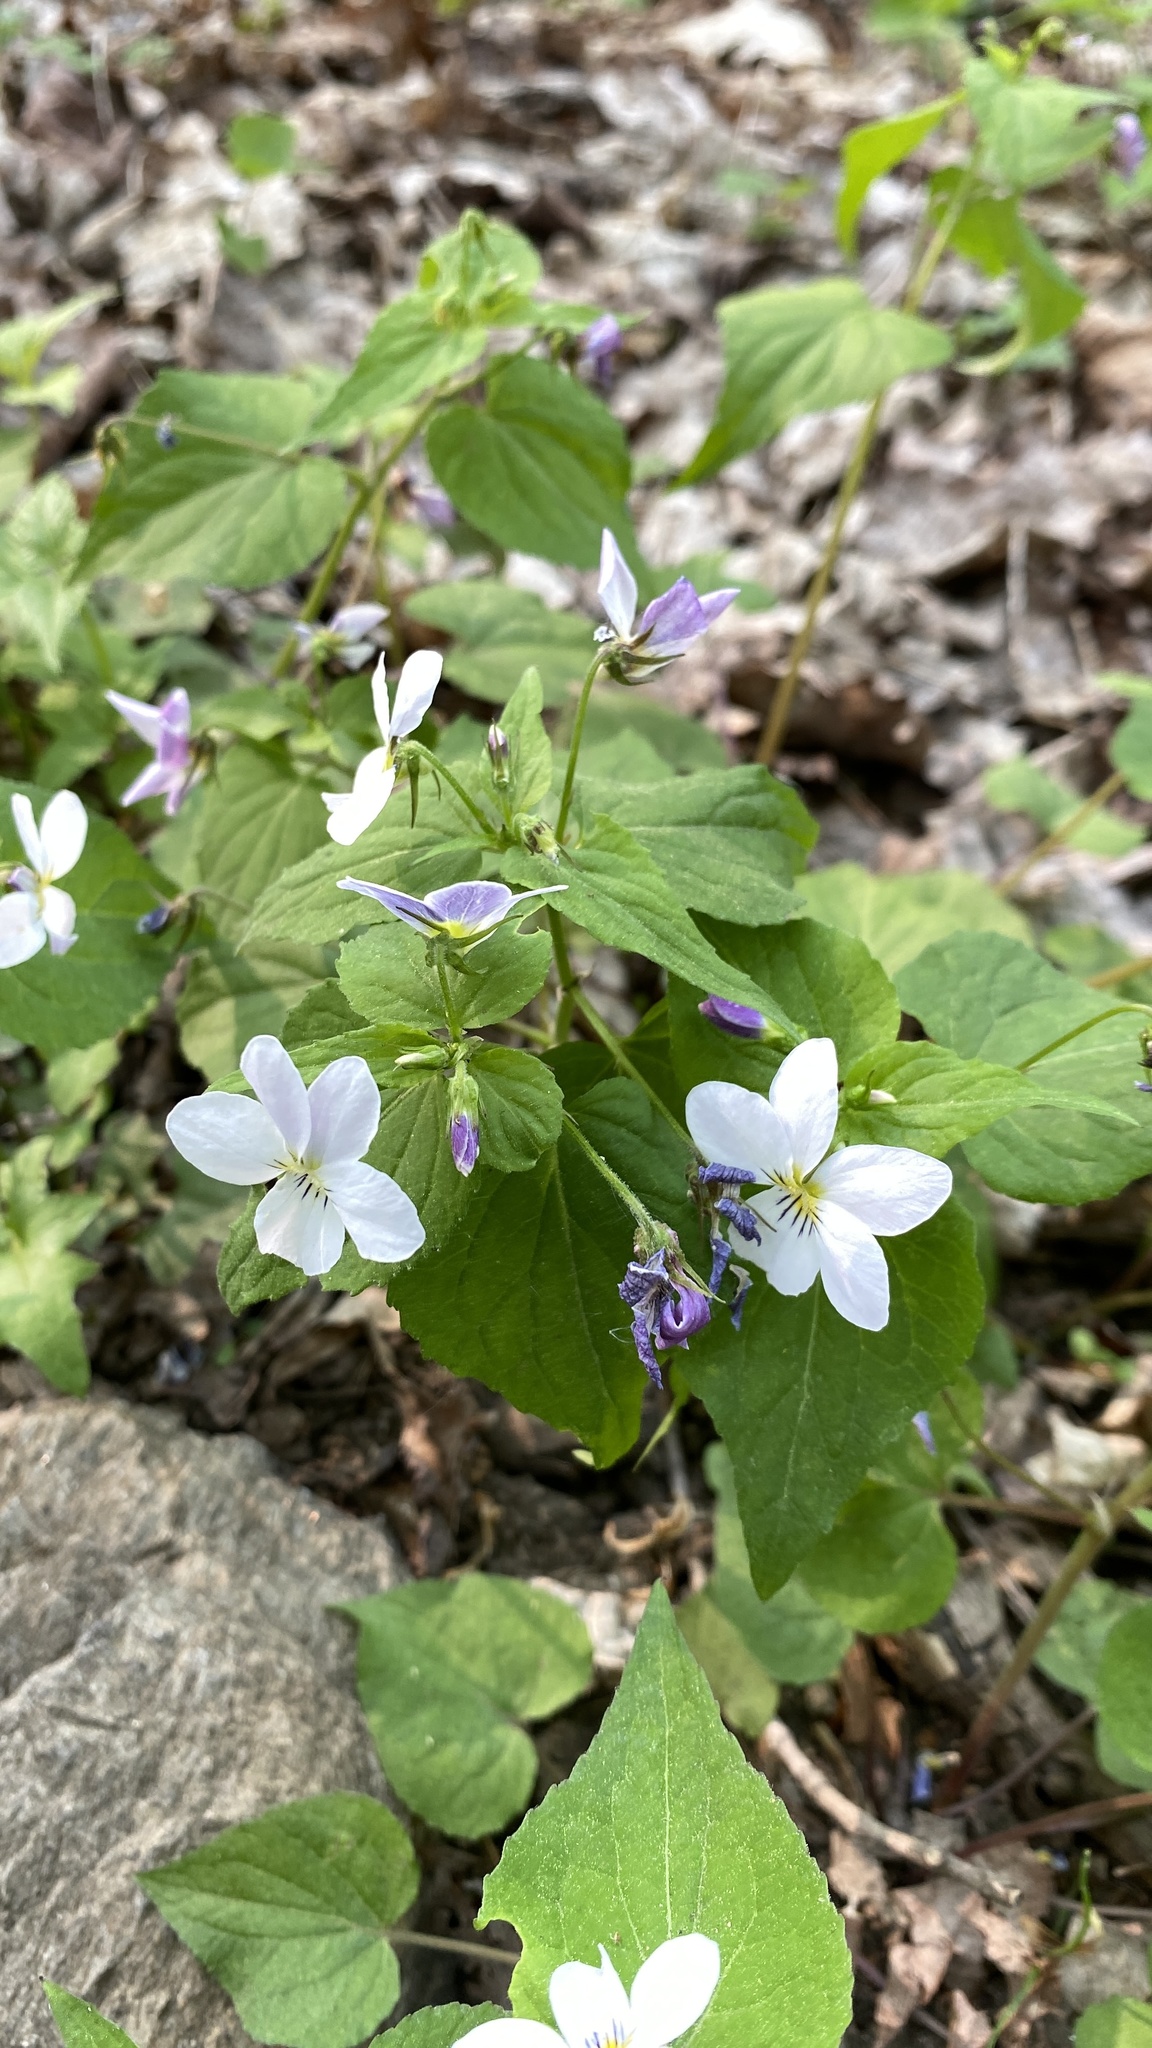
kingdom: Plantae
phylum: Tracheophyta
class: Magnoliopsida
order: Malpighiales
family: Violaceae
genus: Viola
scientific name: Viola canadensis
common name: Canada violet
